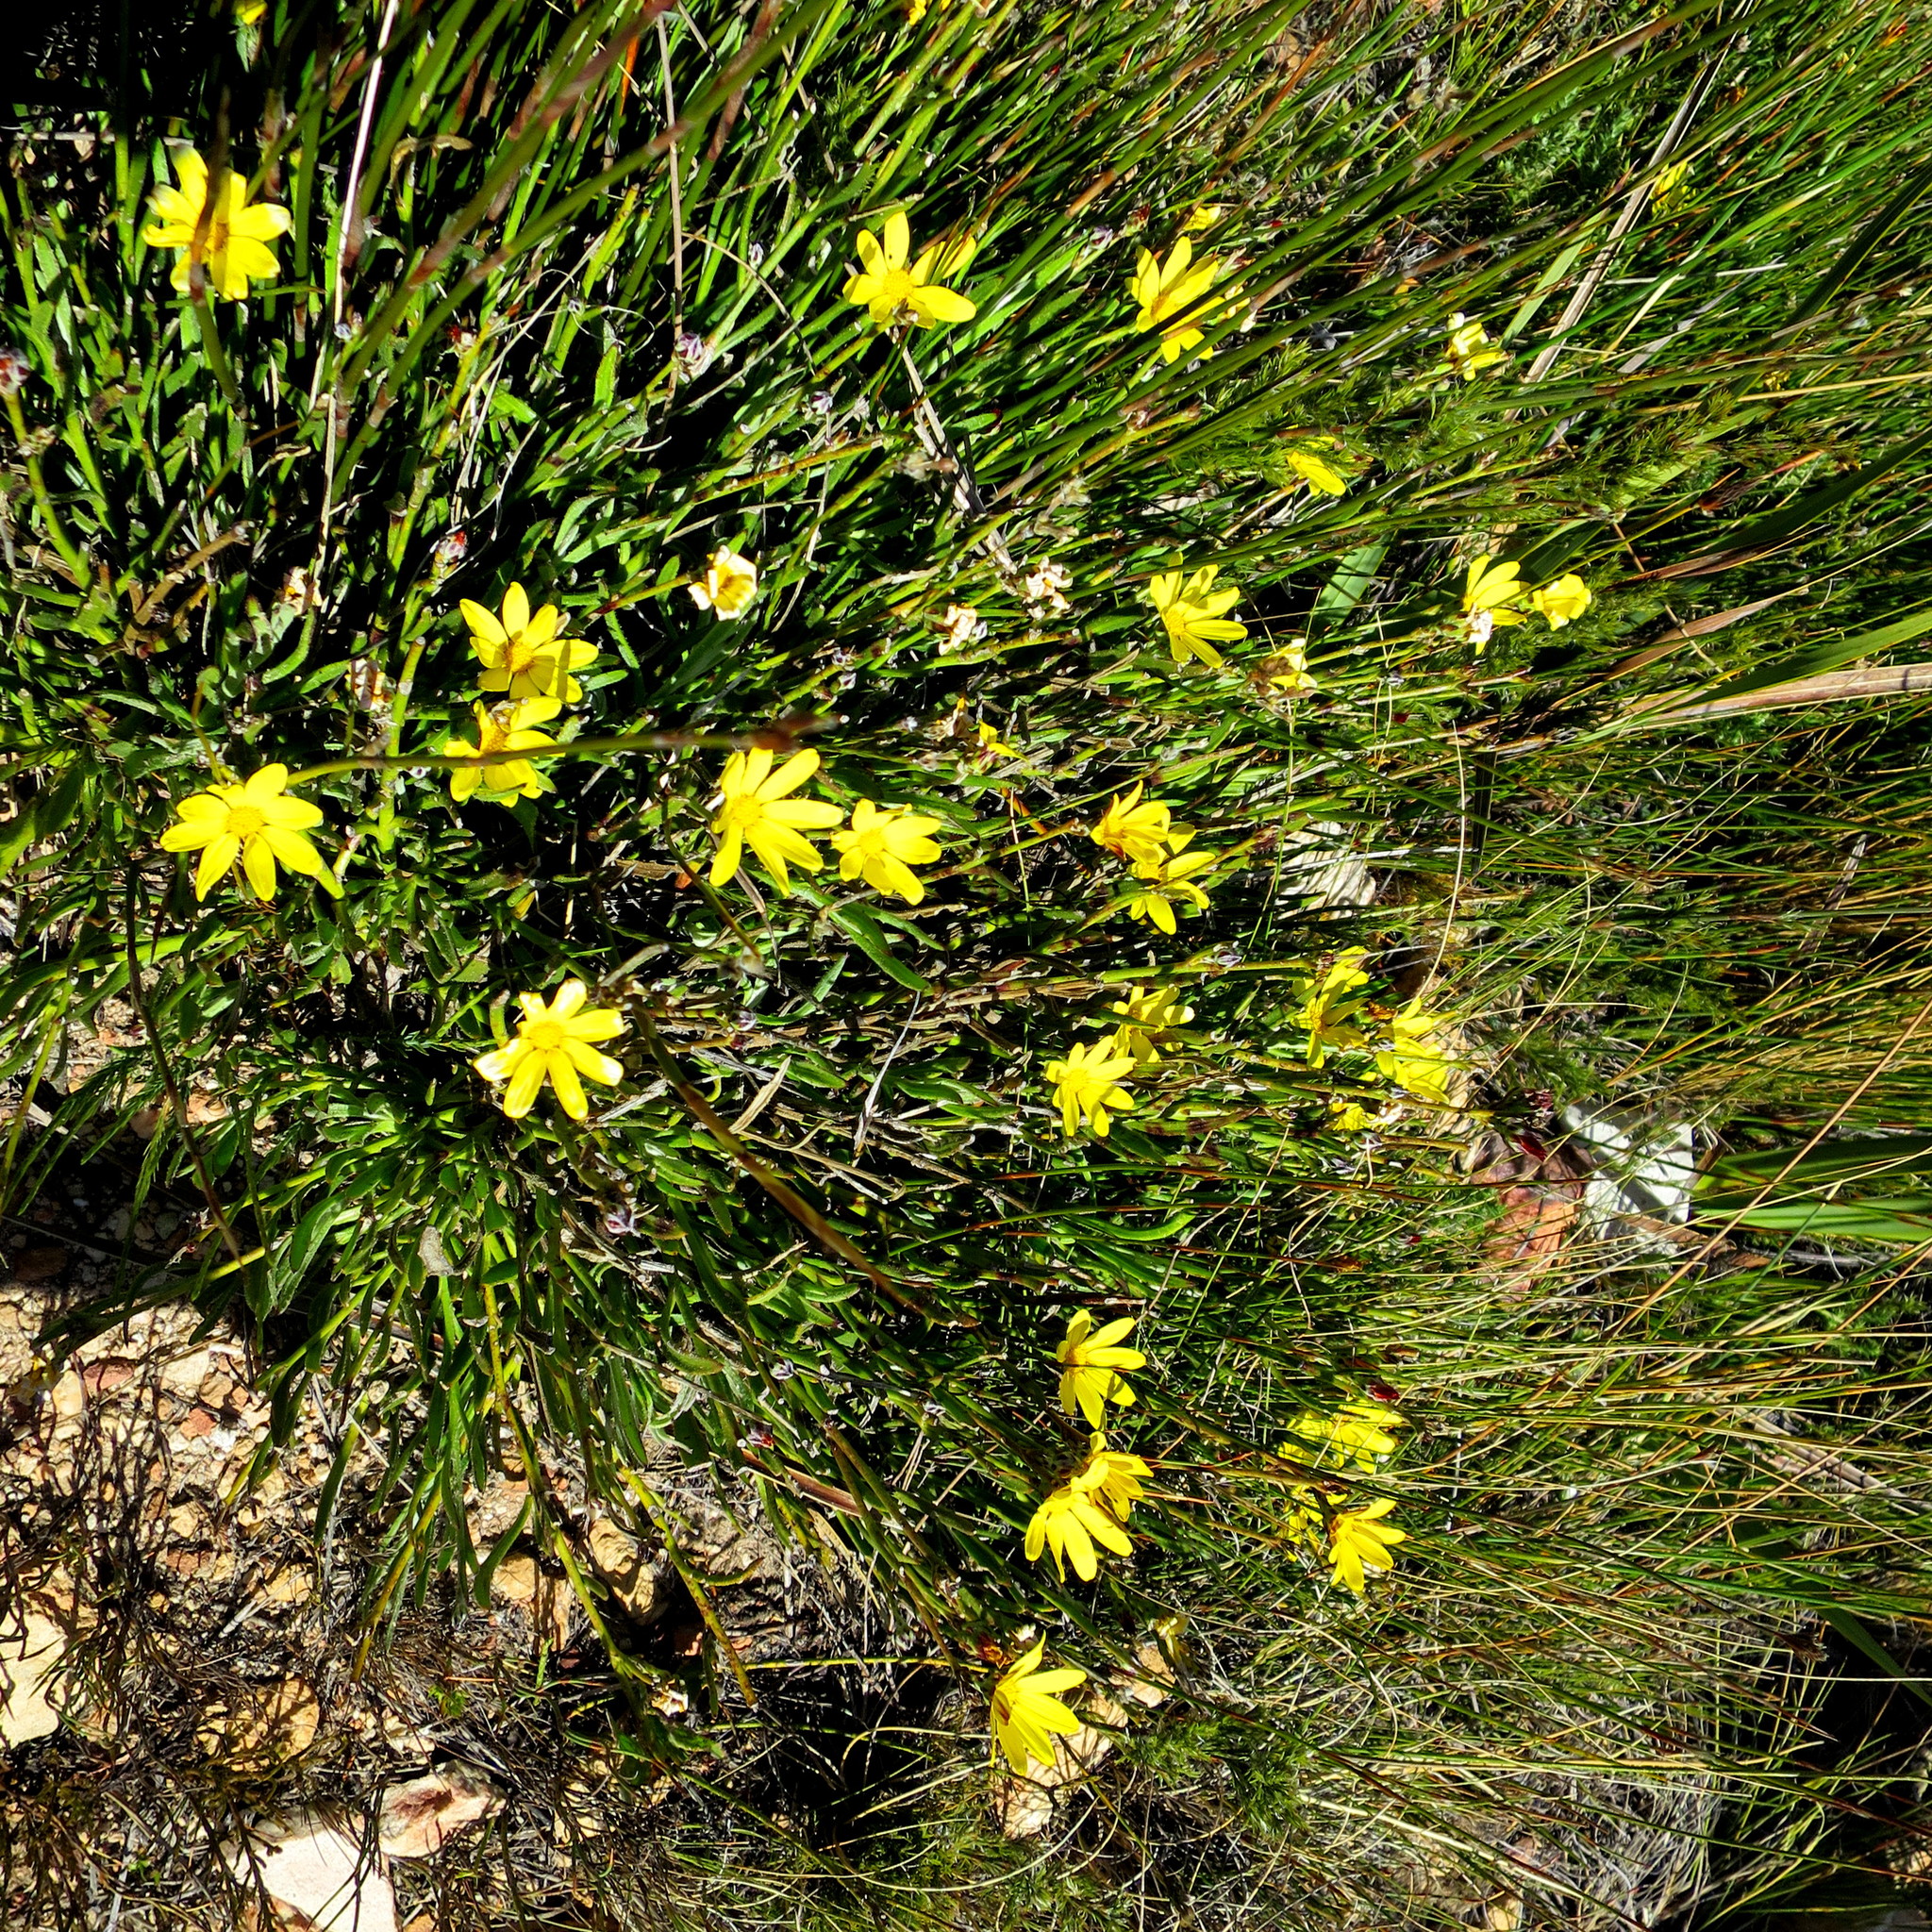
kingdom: Plantae
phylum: Tracheophyta
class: Magnoliopsida
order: Asterales
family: Asteraceae
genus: Osteospermum
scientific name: Osteospermum asperulum
